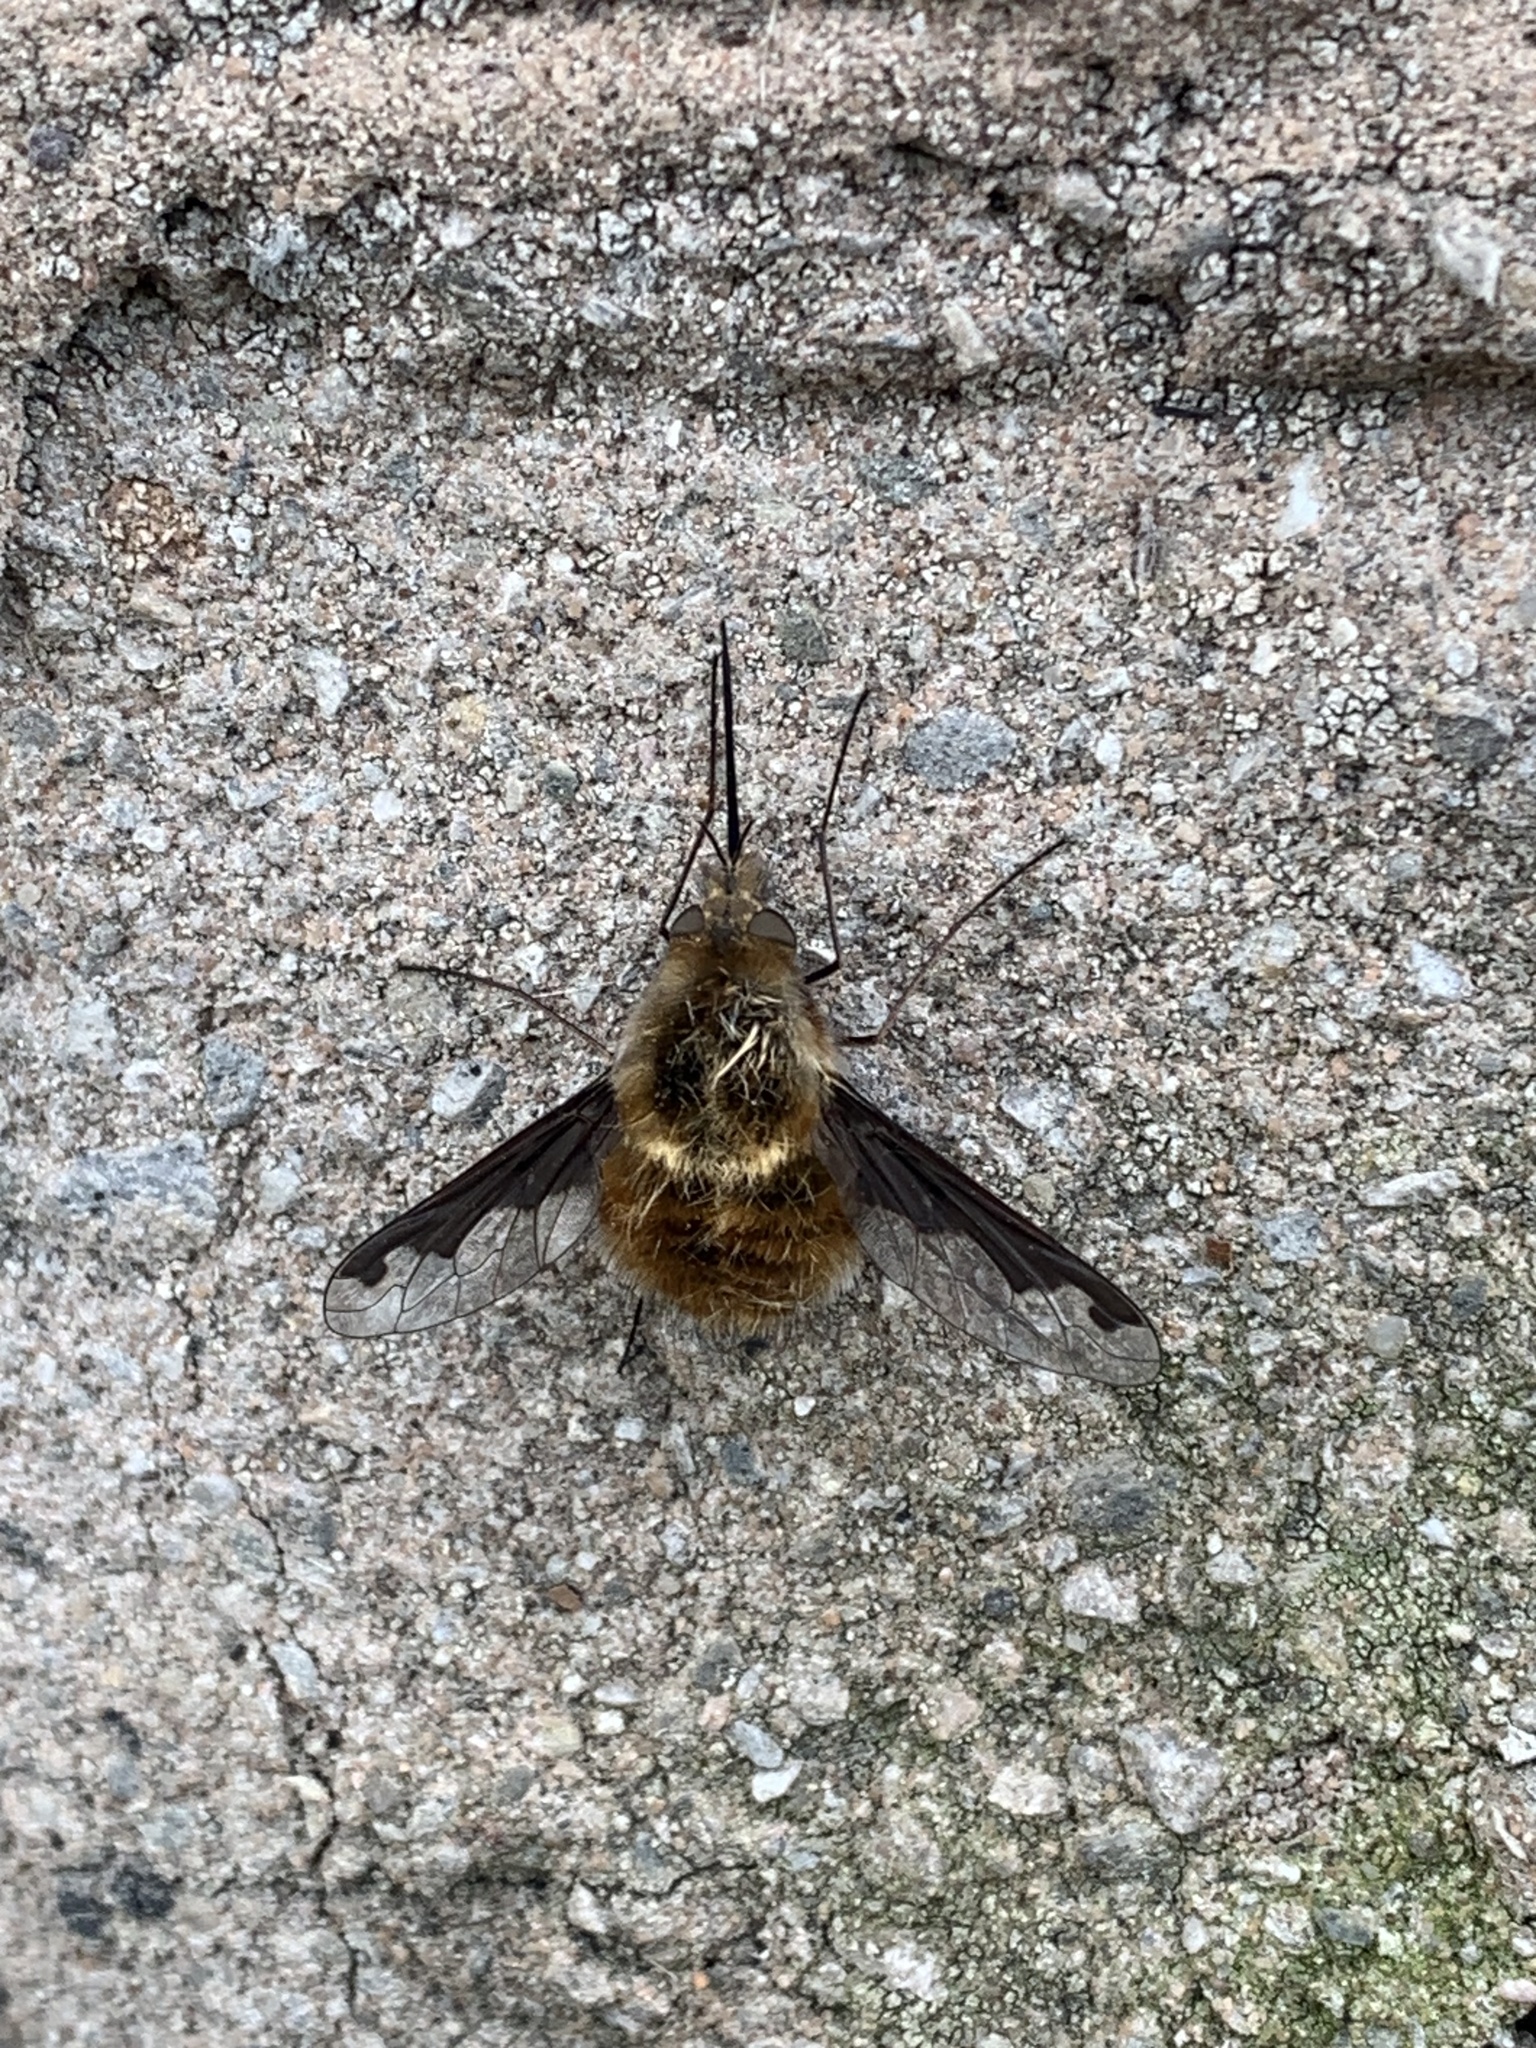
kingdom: Animalia
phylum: Arthropoda
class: Insecta
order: Diptera
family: Bombyliidae
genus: Bombylius
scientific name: Bombylius major
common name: Bee fly
